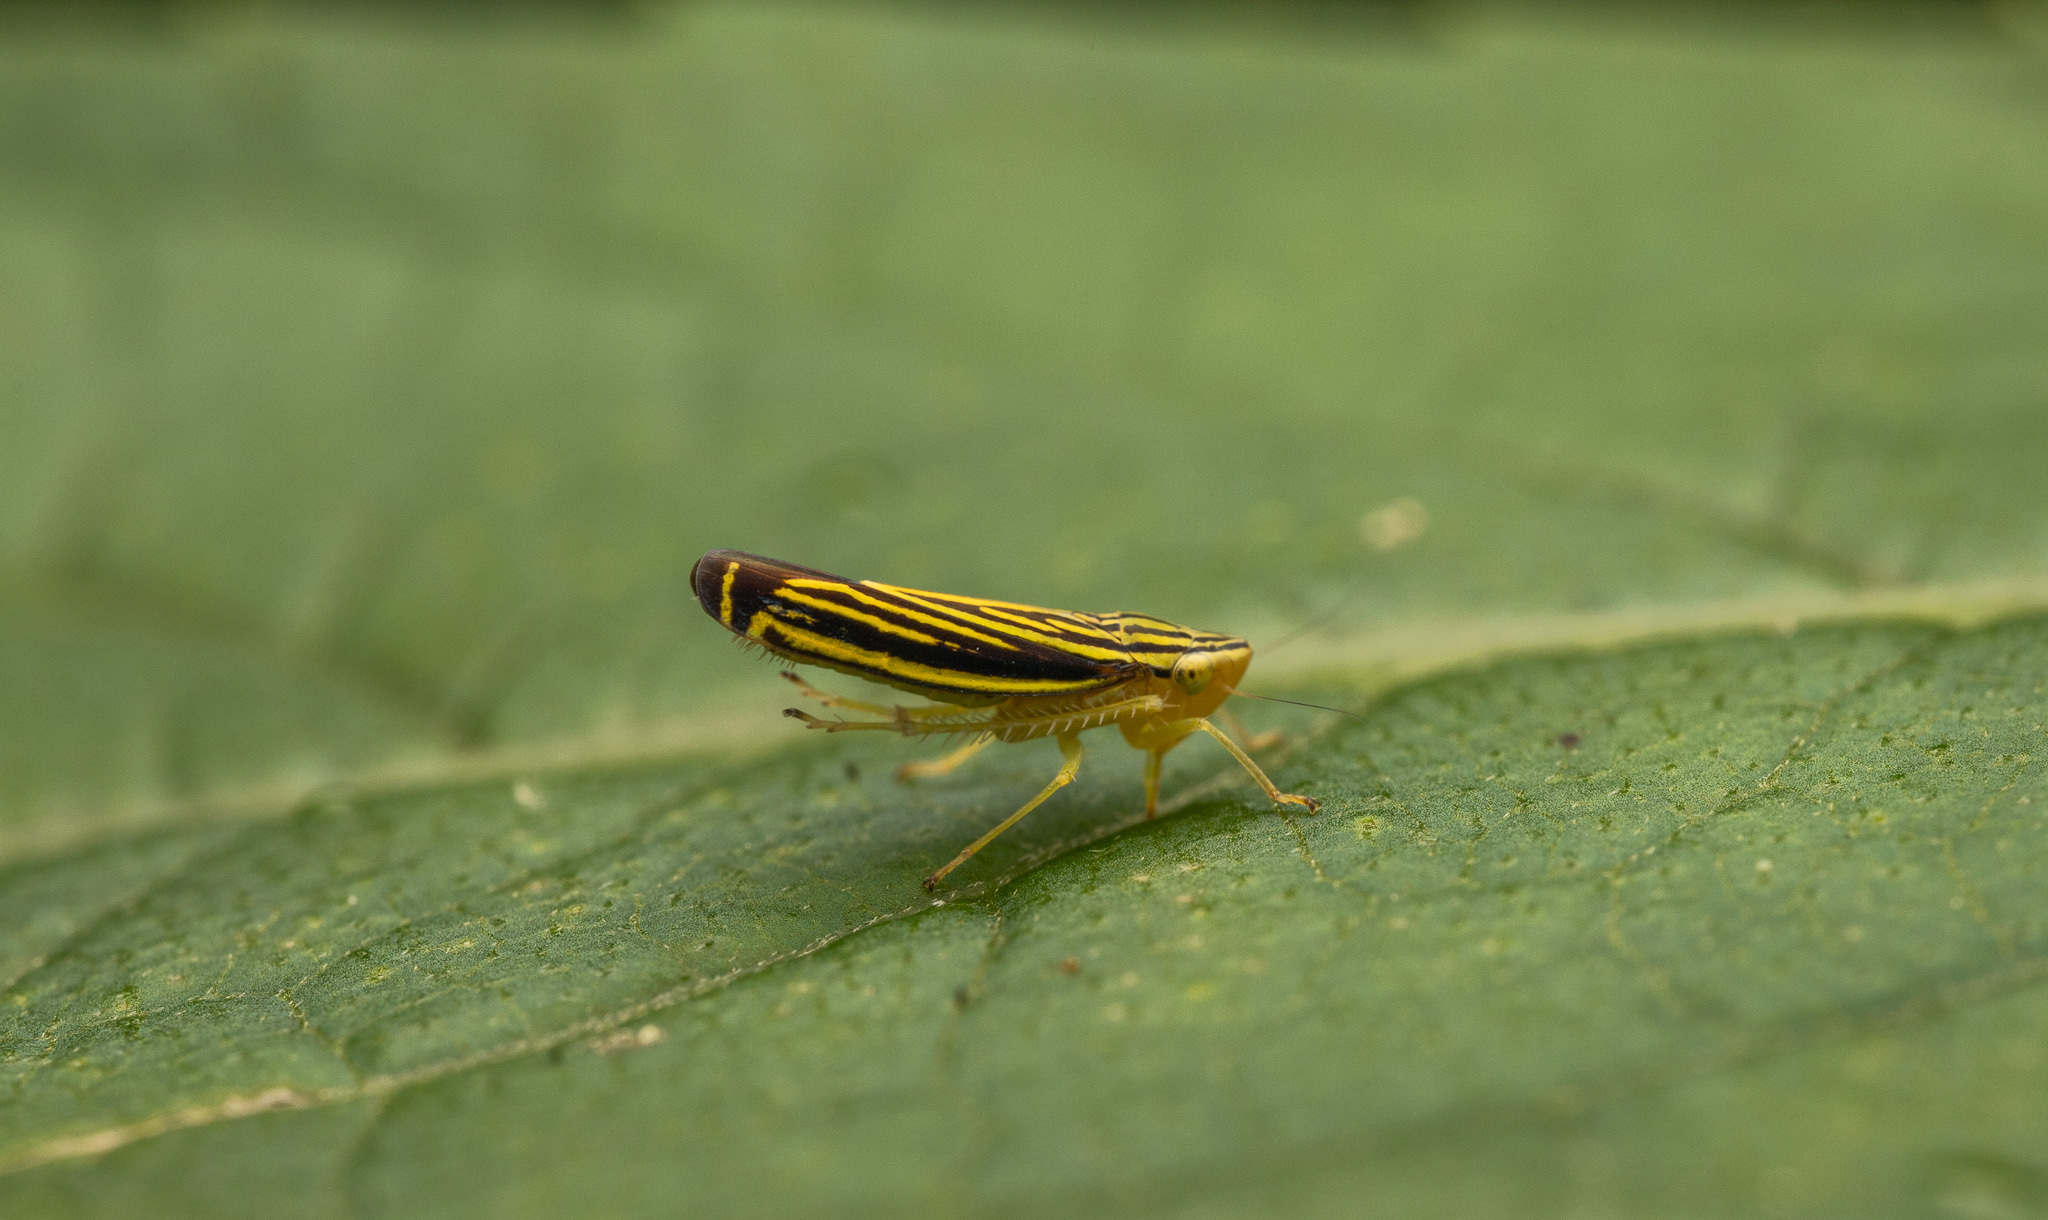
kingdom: Animalia
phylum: Arthropoda
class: Insecta
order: Hemiptera
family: Cicadellidae
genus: Sibovia
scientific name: Sibovia occatoria
